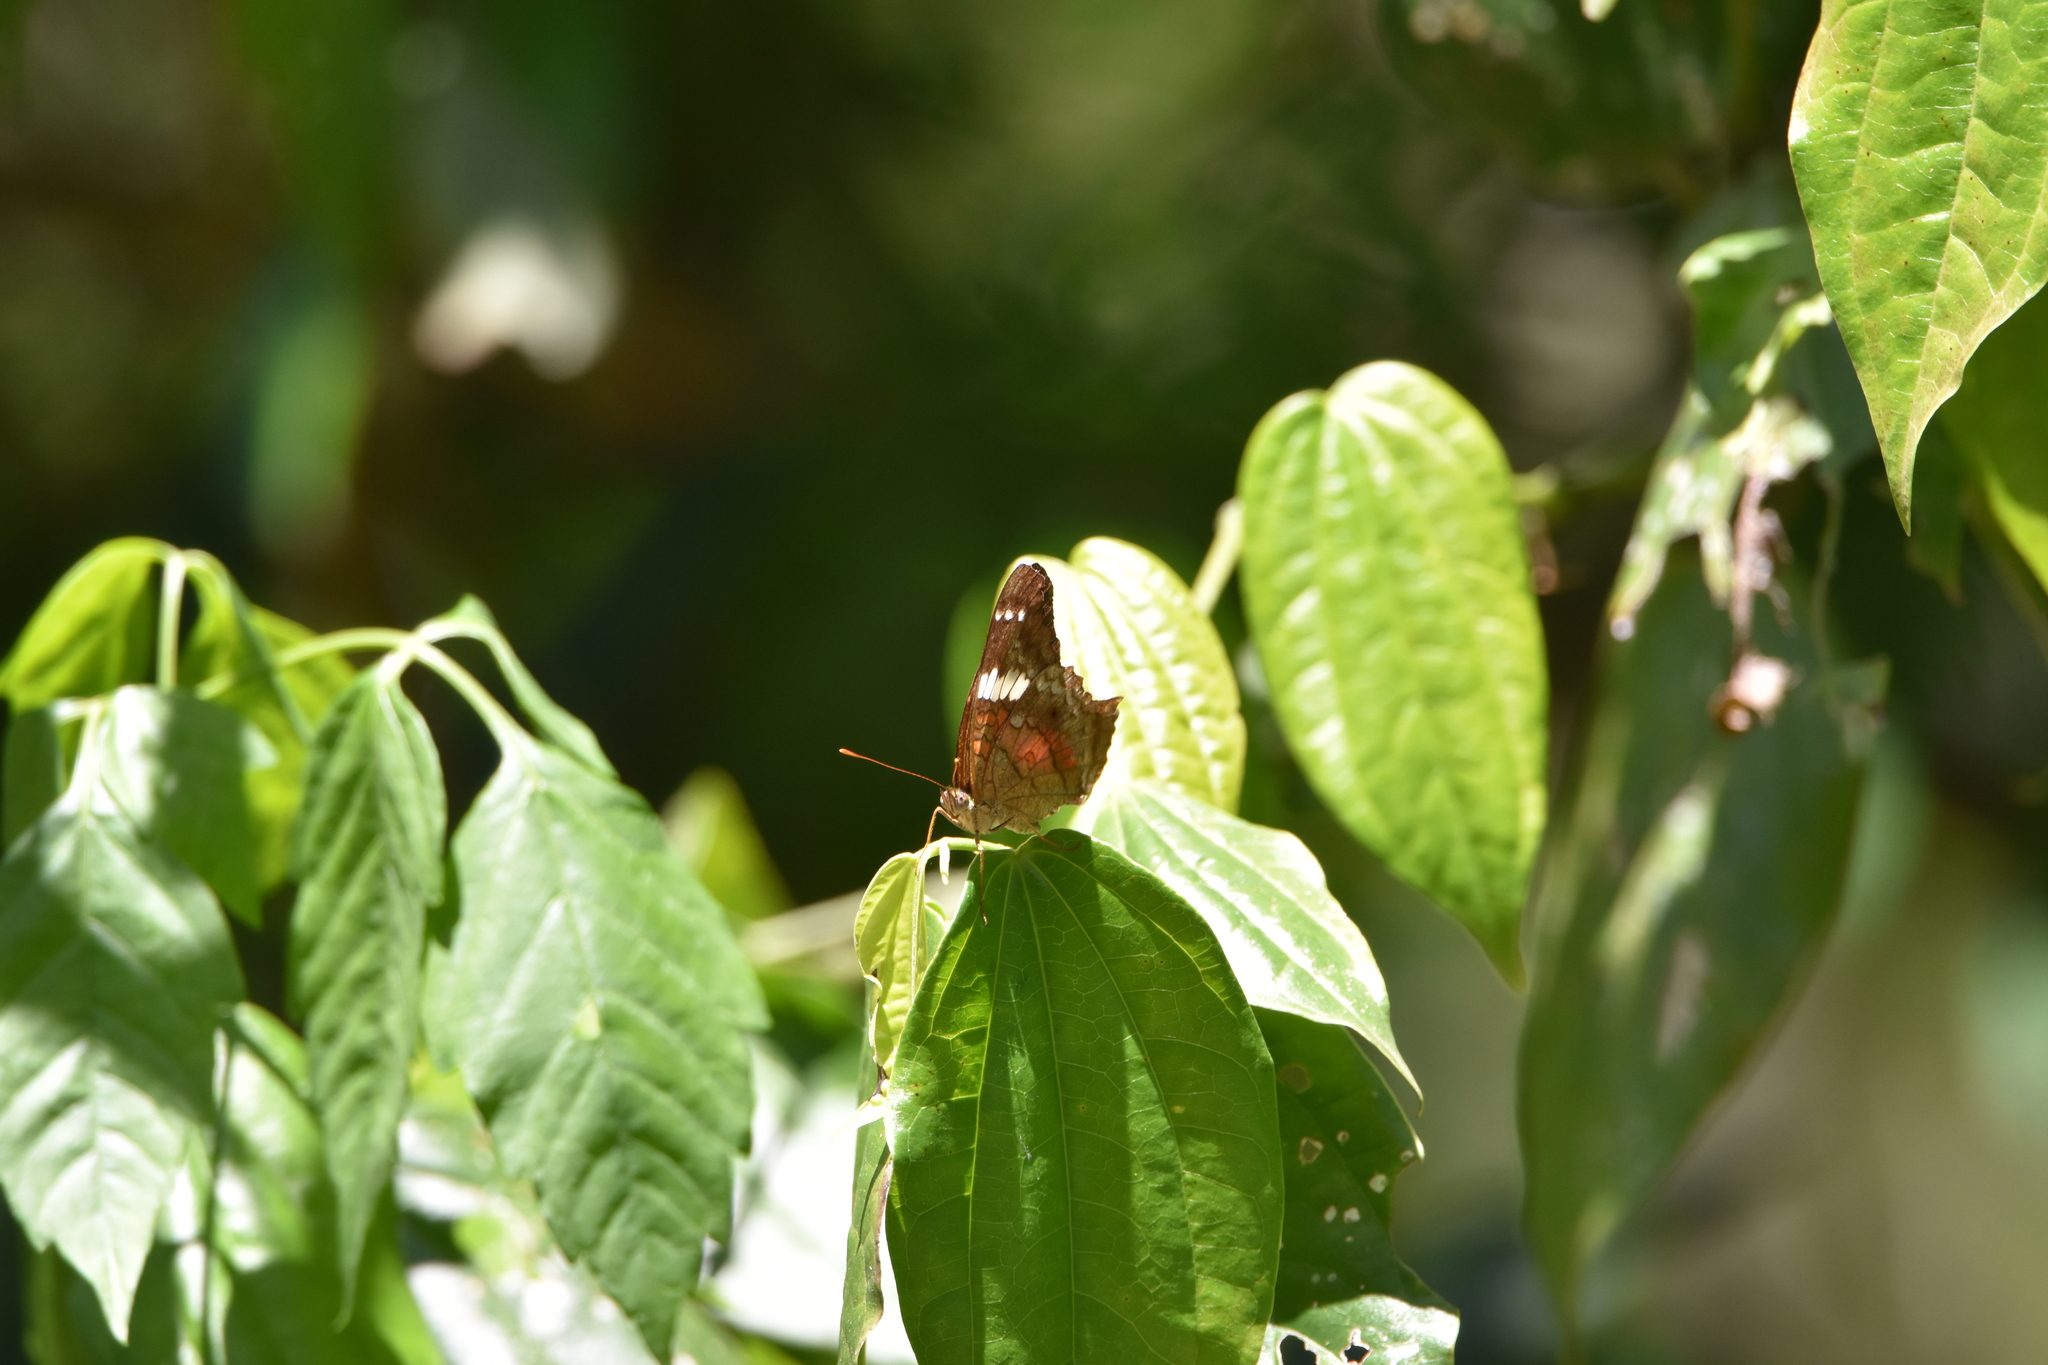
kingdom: Animalia
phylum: Arthropoda
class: Insecta
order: Lepidoptera
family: Nymphalidae
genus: Anartia
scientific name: Anartia amathea
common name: Red peacock
